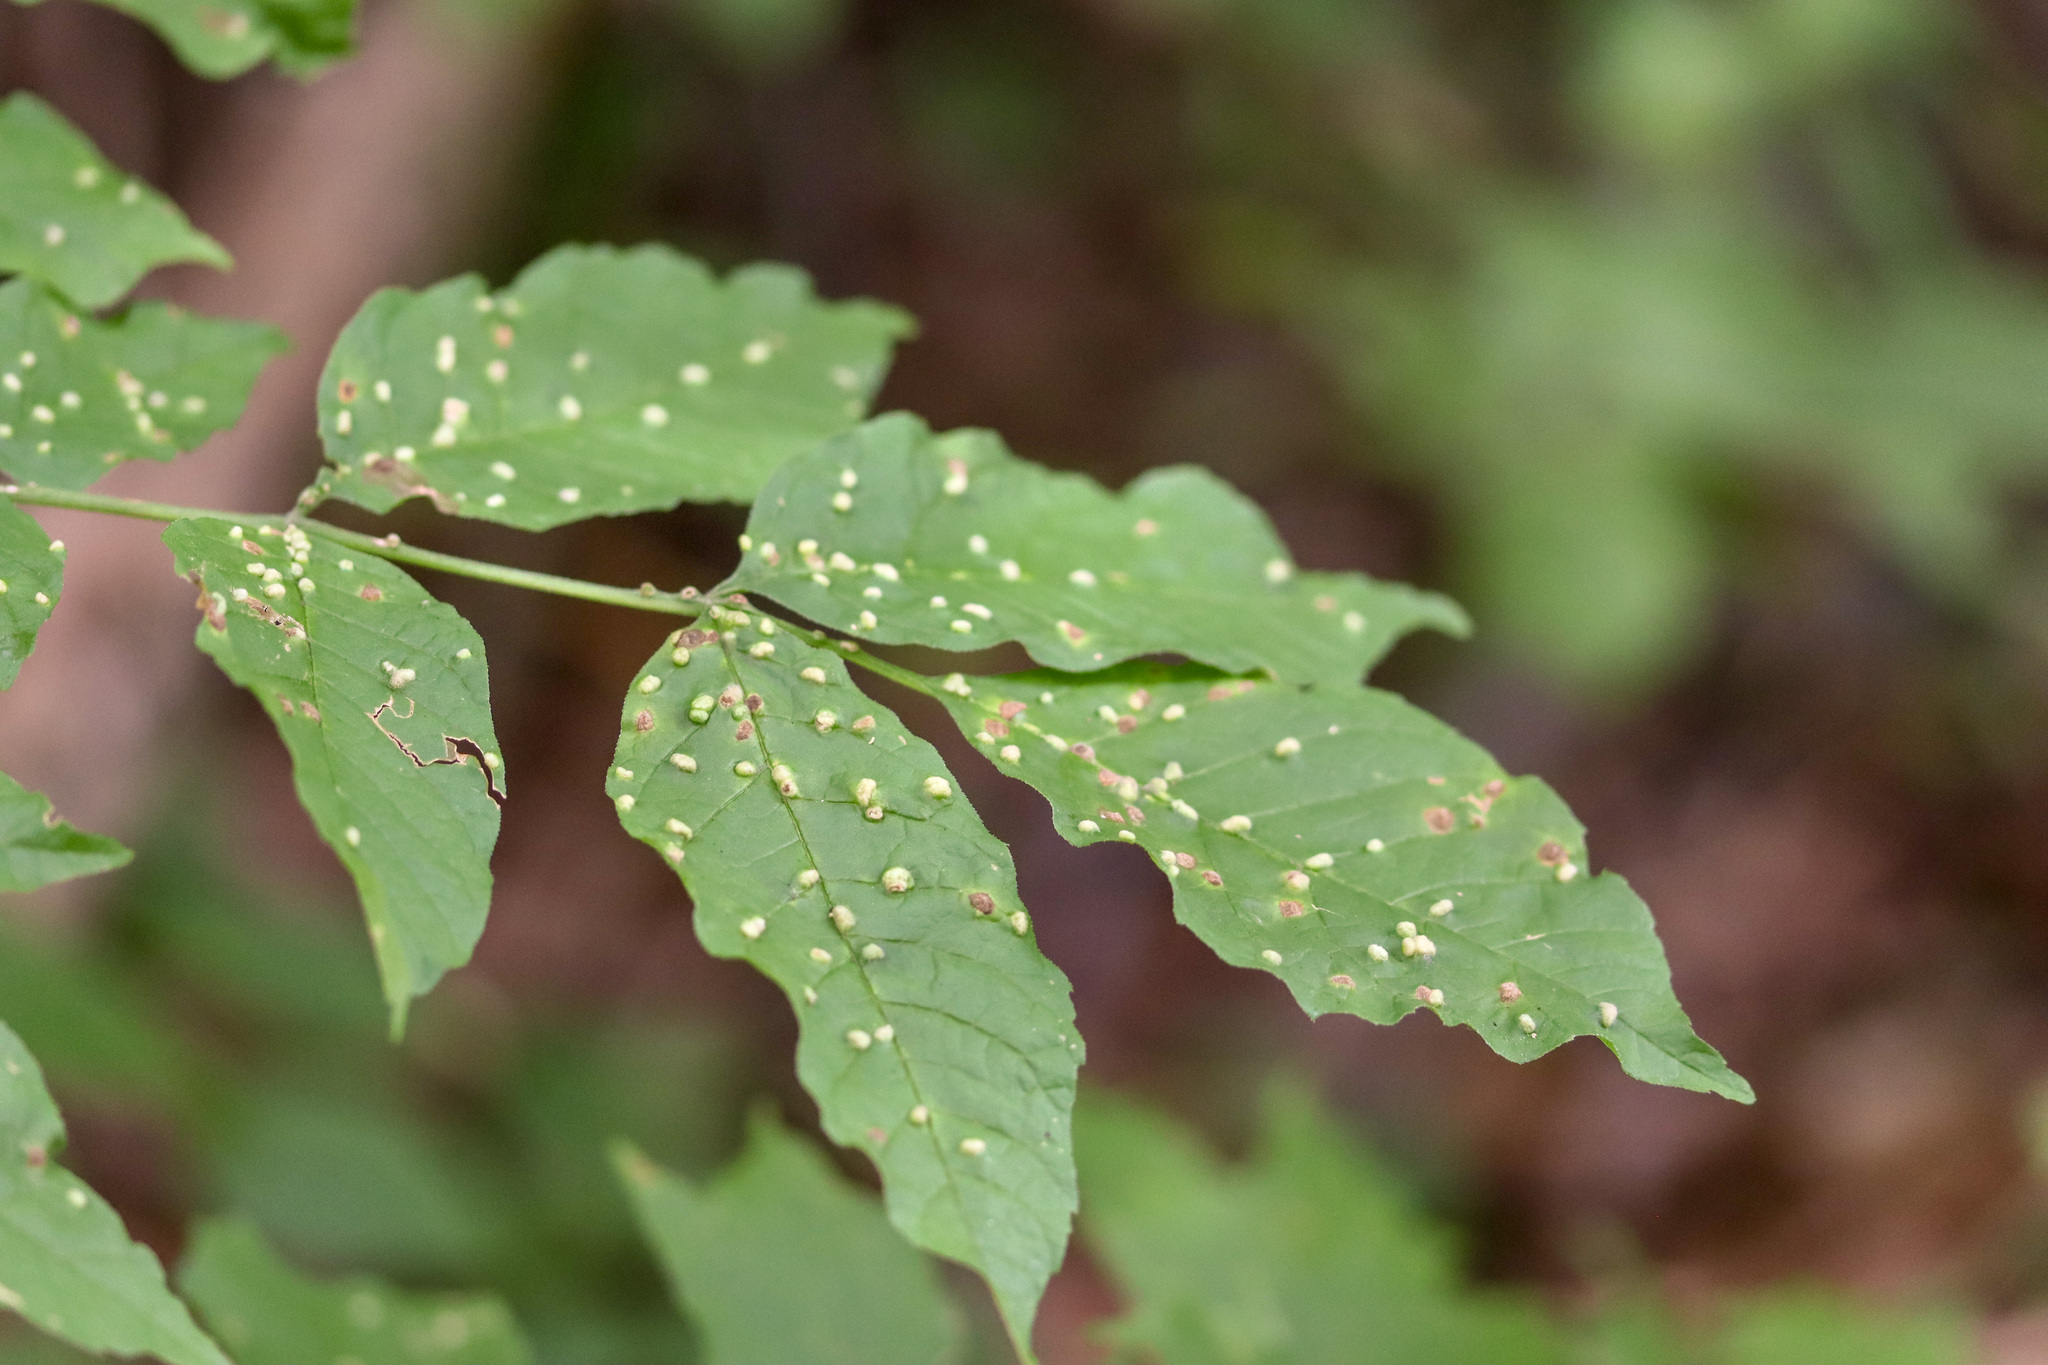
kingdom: Animalia
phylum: Arthropoda
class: Arachnida
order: Trombidiformes
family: Eriophyidae
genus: Aceria
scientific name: Aceria fraxinicola
